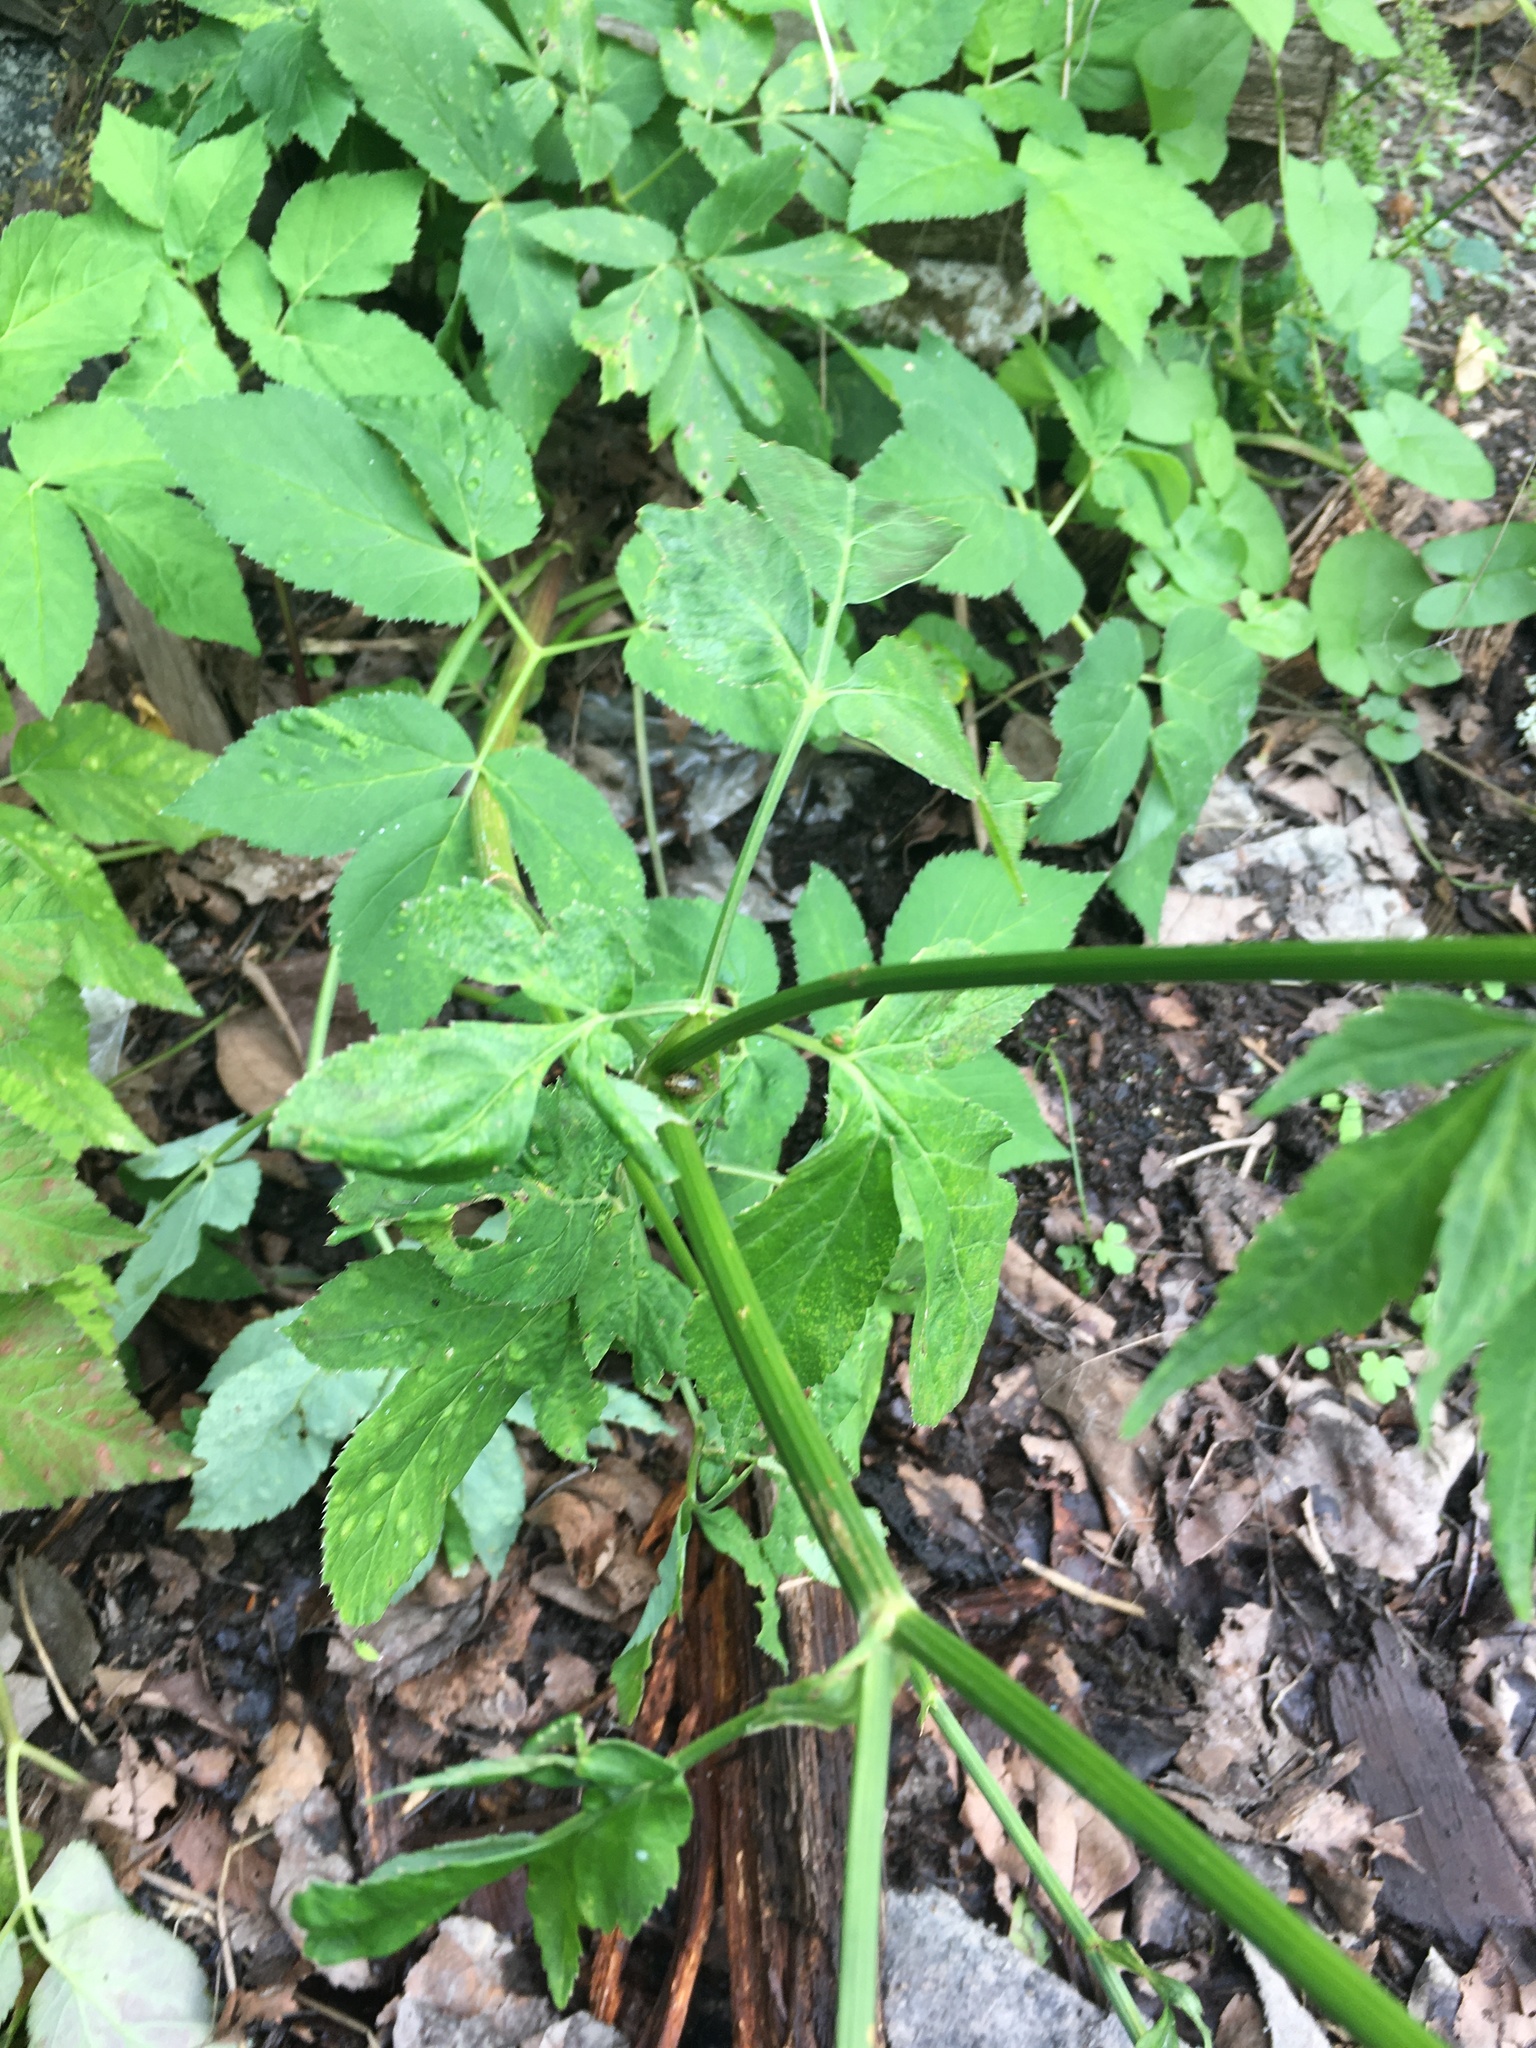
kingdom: Plantae
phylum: Tracheophyta
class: Magnoliopsida
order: Apiales
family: Apiaceae
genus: Aegopodium
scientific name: Aegopodium podagraria
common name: Ground-elder
